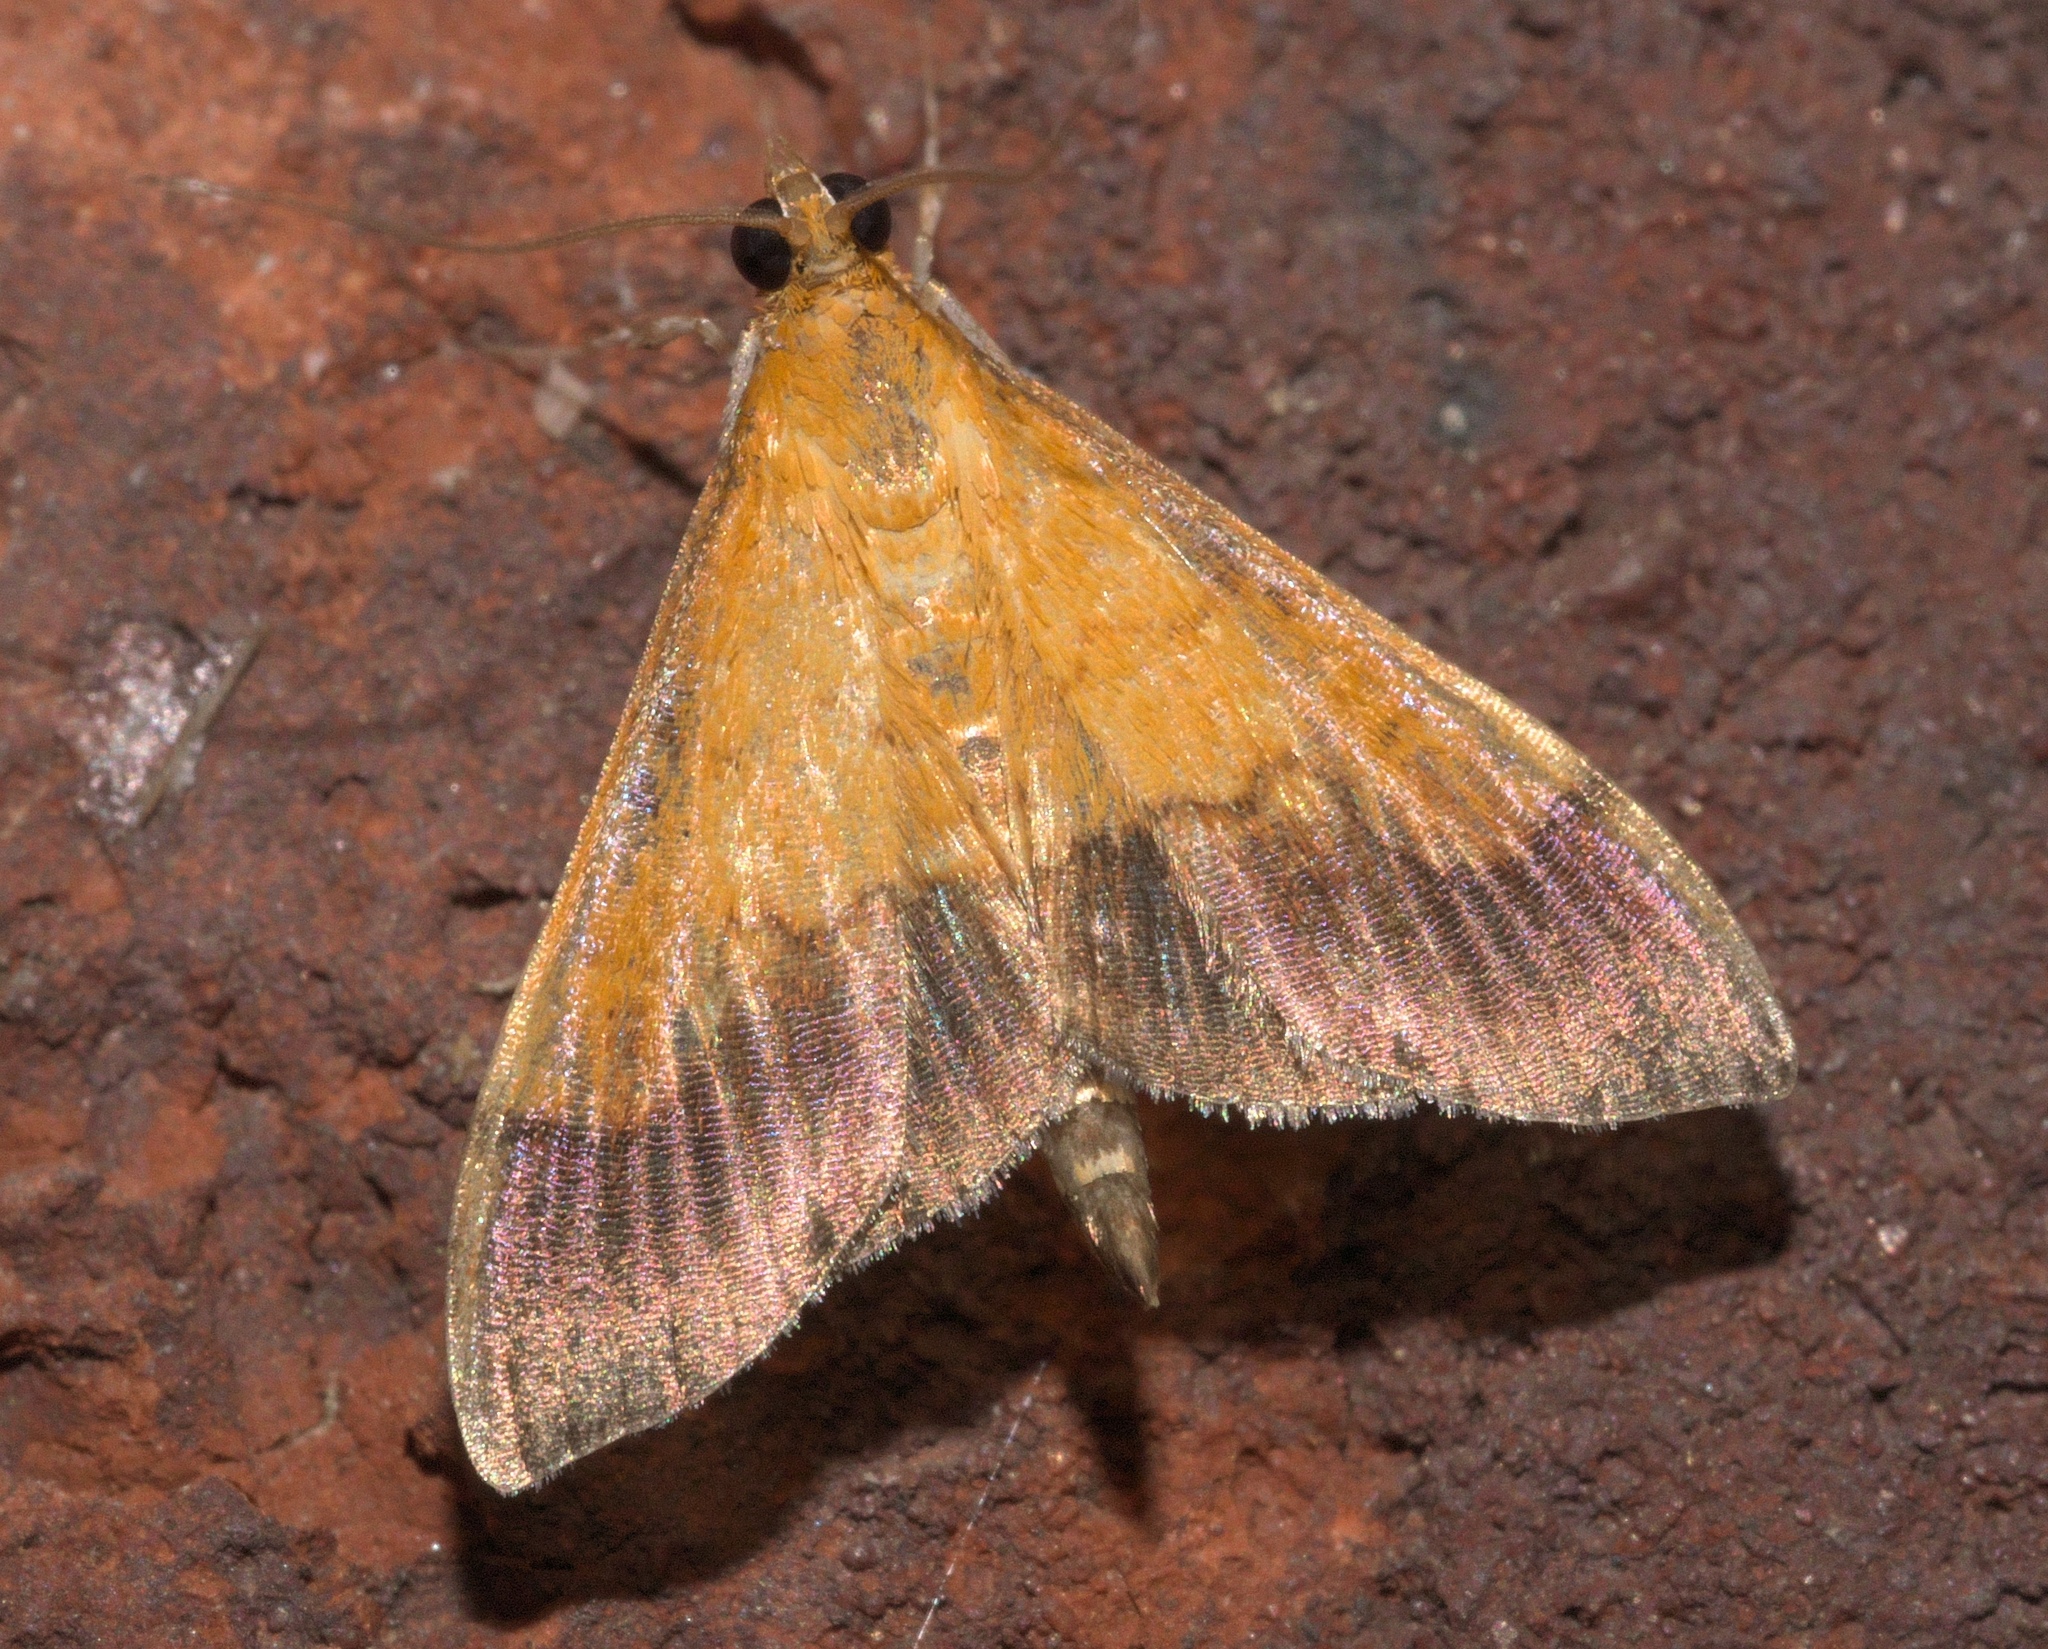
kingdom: Animalia
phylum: Arthropoda
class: Insecta
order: Lepidoptera
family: Crambidae
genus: Pyrausta
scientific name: Pyrausta bicoloralis
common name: Bicolored pyrausta moth
